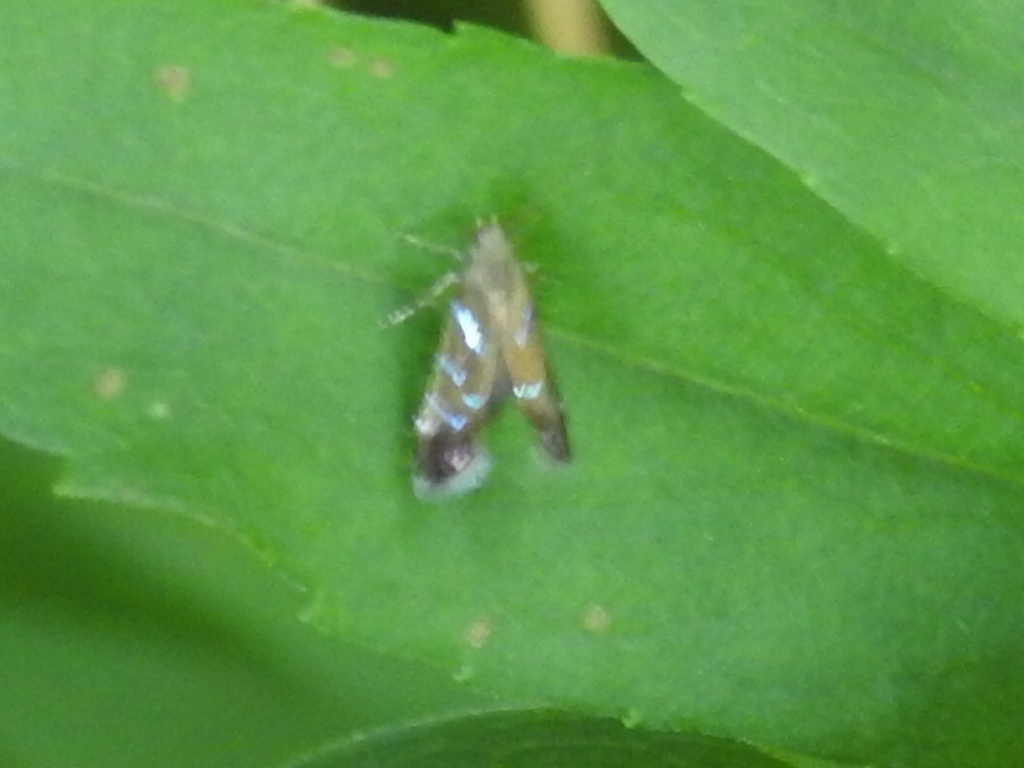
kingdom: Animalia
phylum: Arthropoda
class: Insecta
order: Lepidoptera
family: Gelechiidae
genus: Strobisia
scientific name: Strobisia proserpinella
